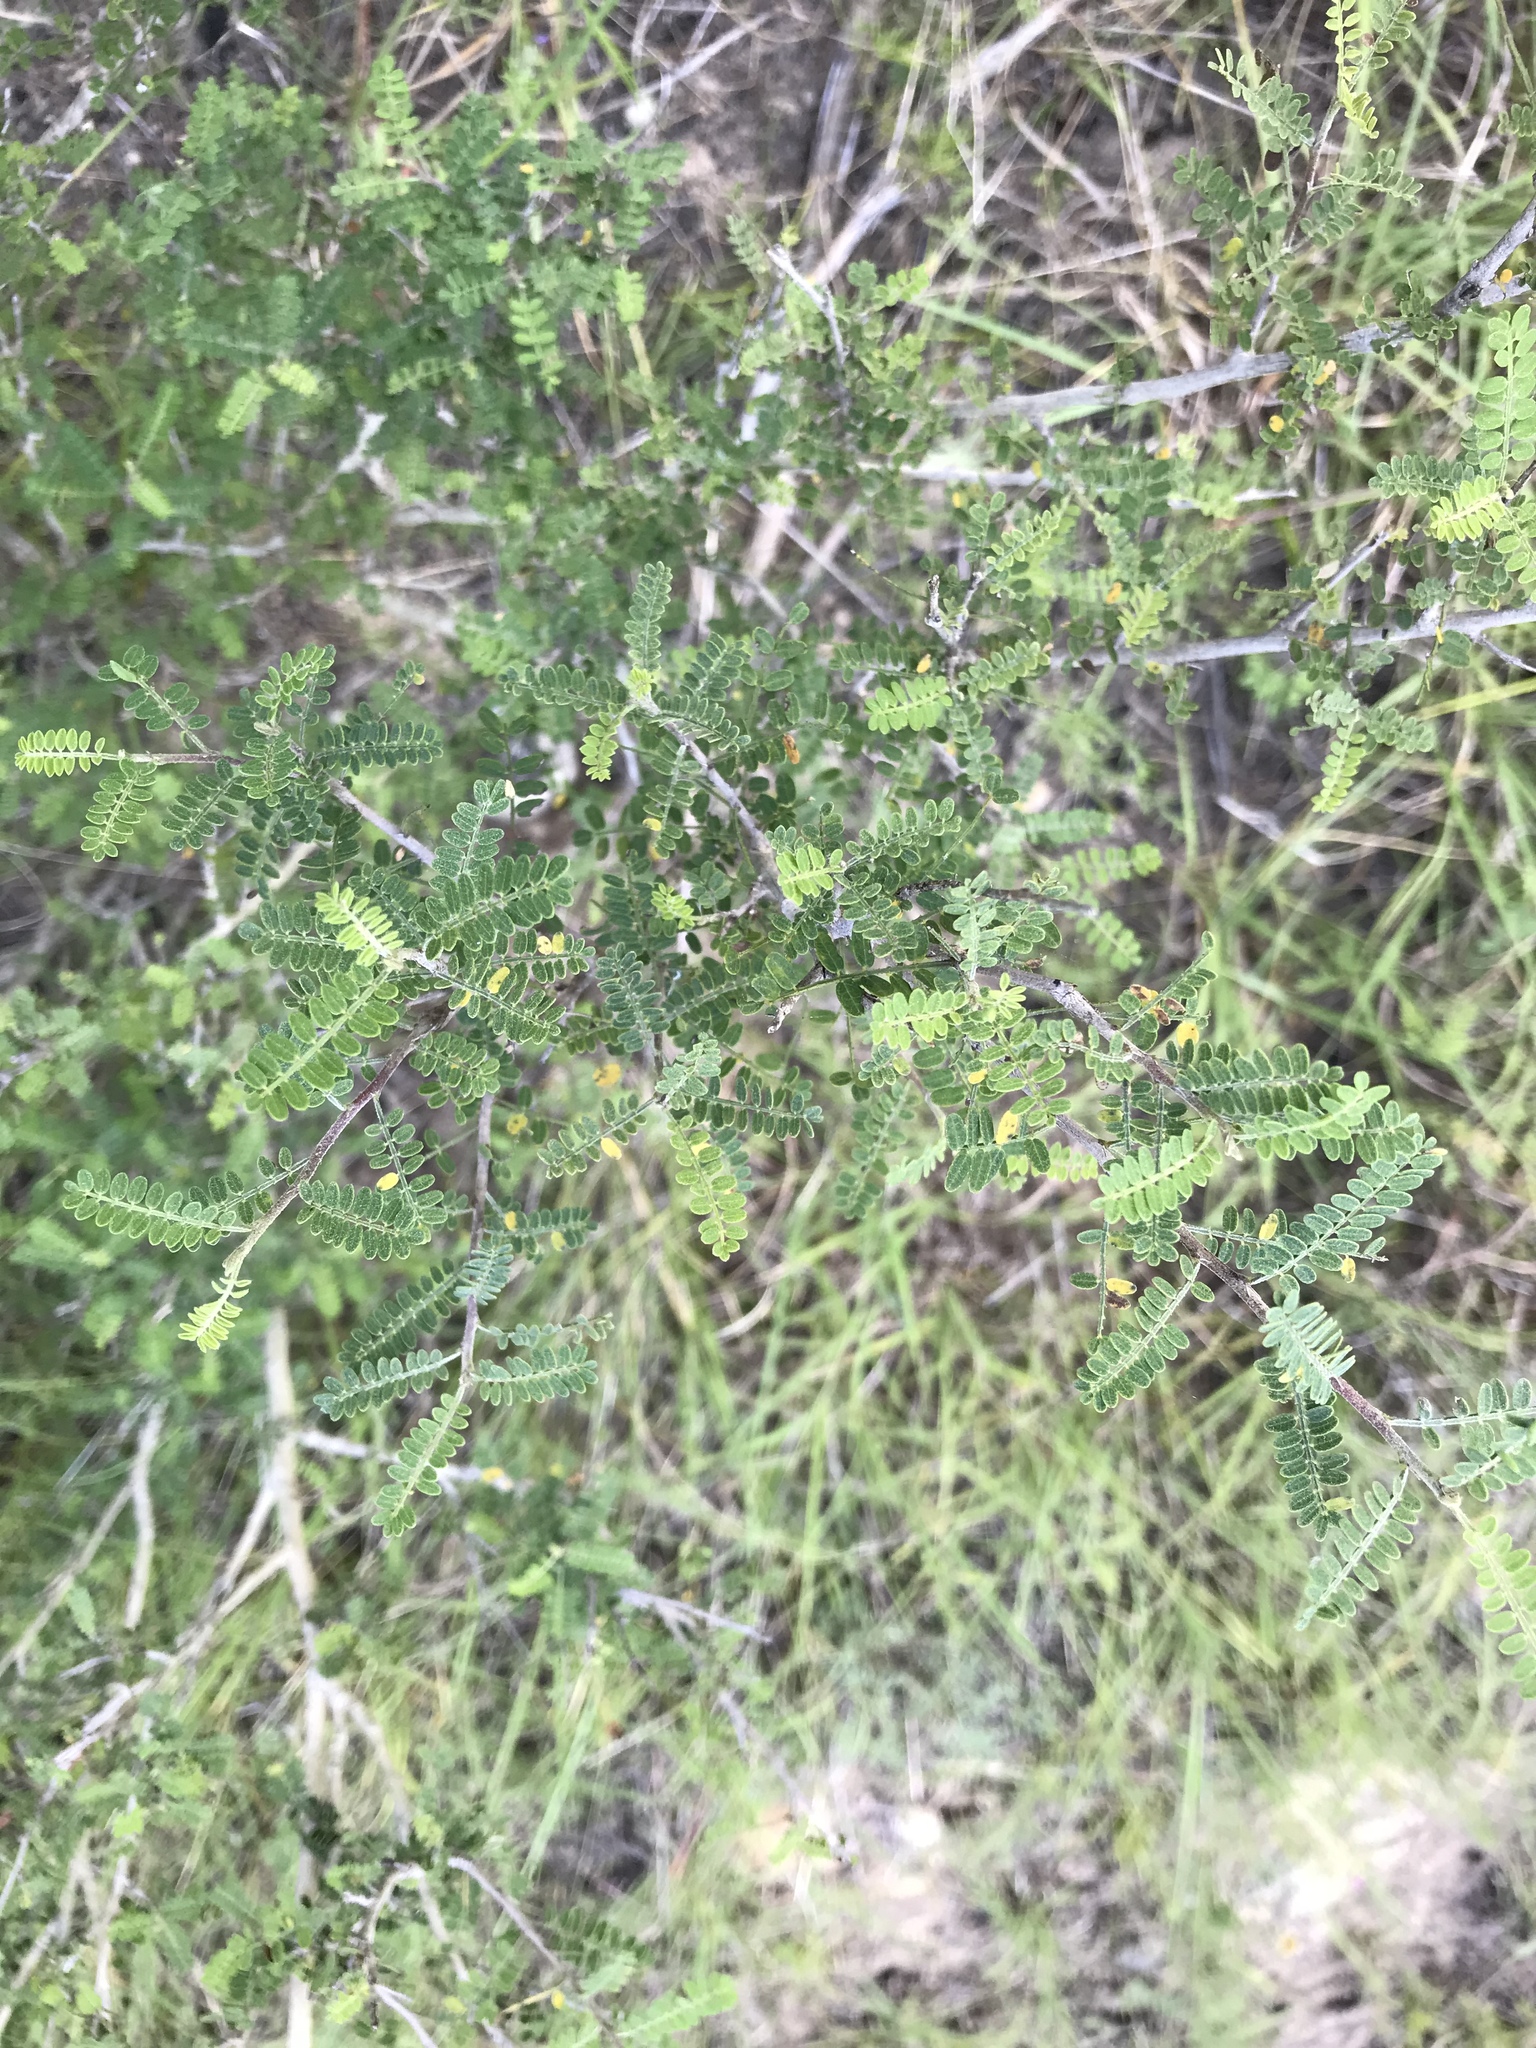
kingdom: Plantae
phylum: Tracheophyta
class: Magnoliopsida
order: Fabales
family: Fabaceae
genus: Eysenhardtia
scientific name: Eysenhardtia texana
